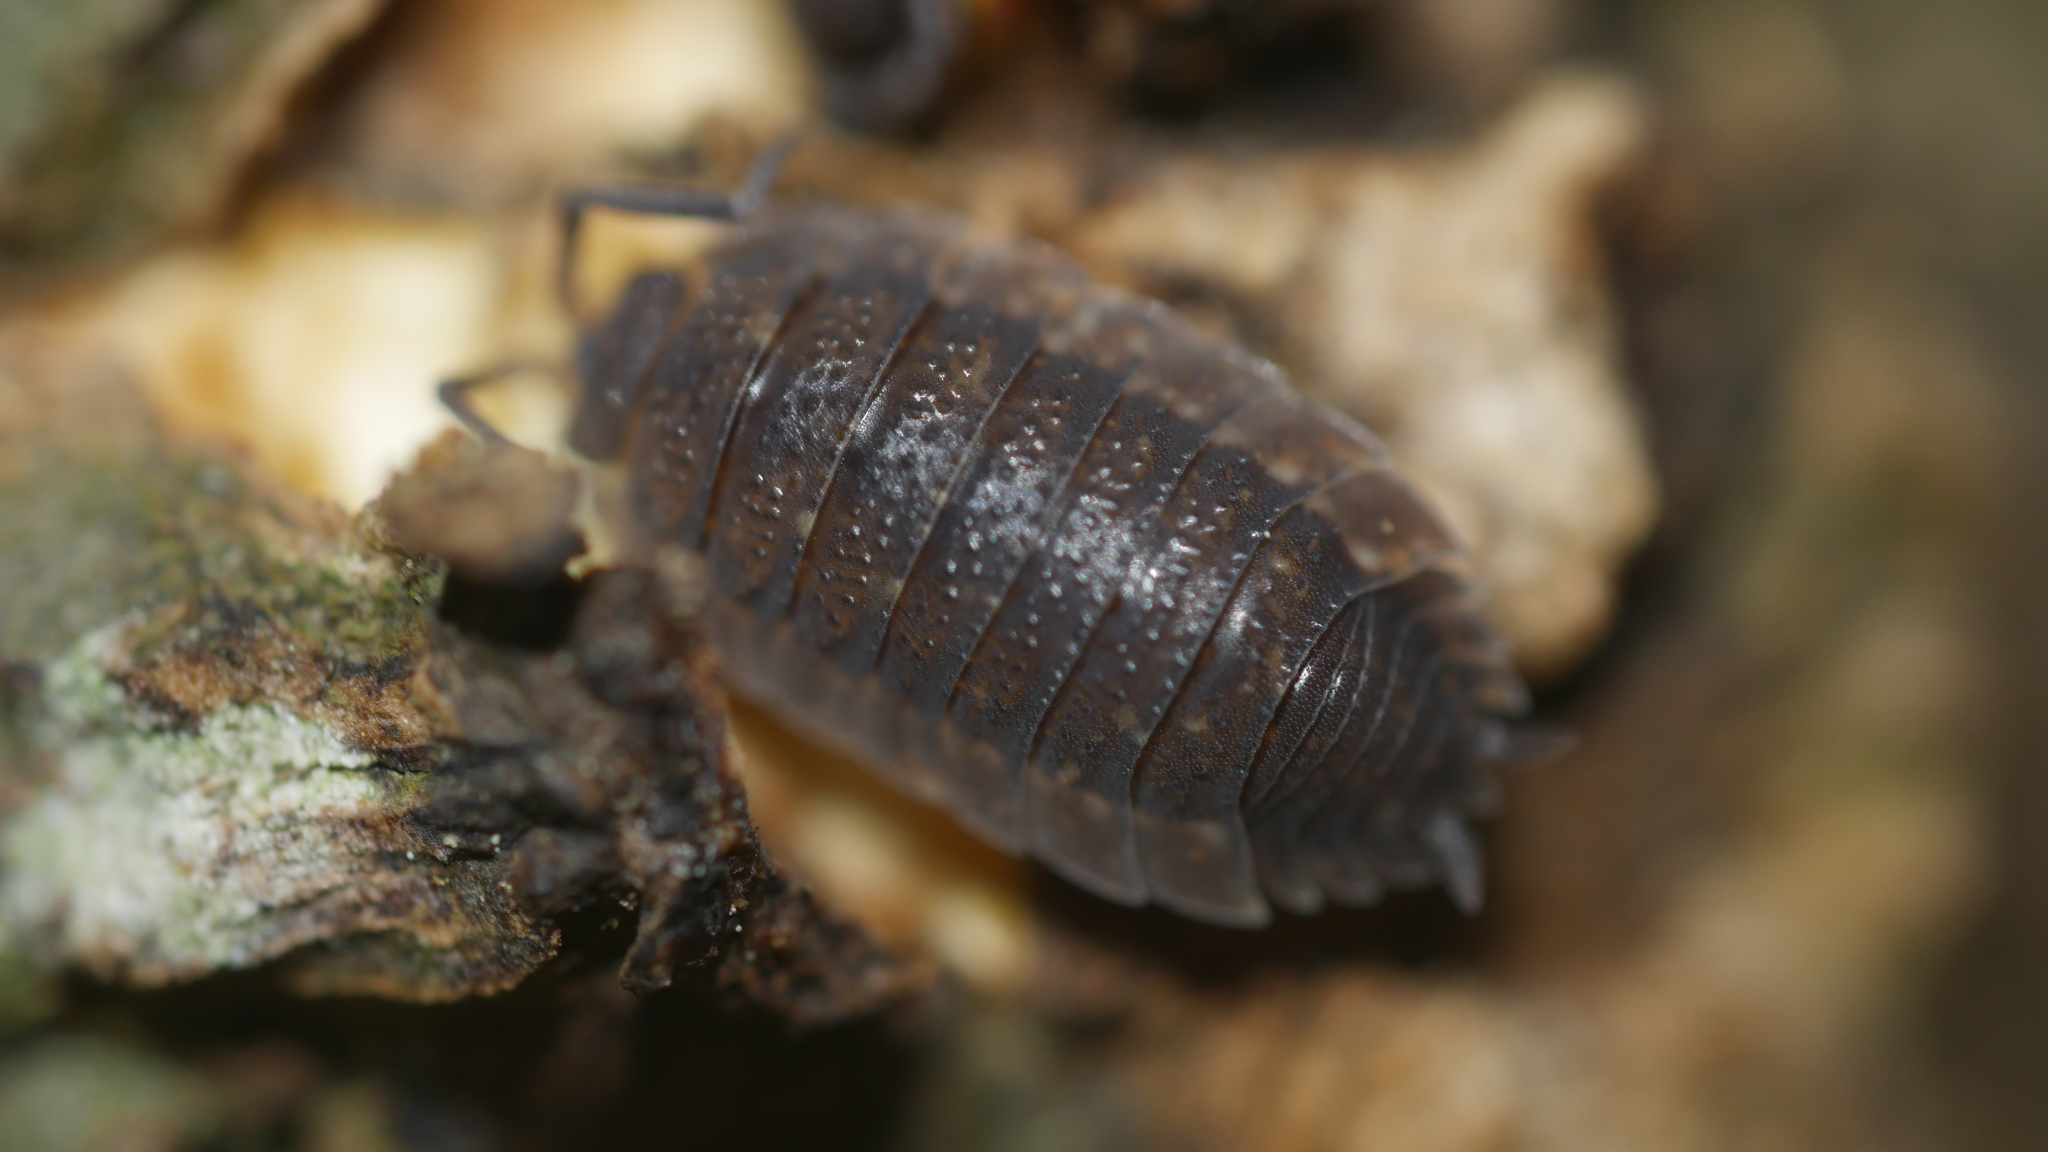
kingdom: Animalia
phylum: Arthropoda
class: Malacostraca
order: Isopoda
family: Porcellionidae
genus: Porcellio
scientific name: Porcellio scaber
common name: Common rough woodlouse
